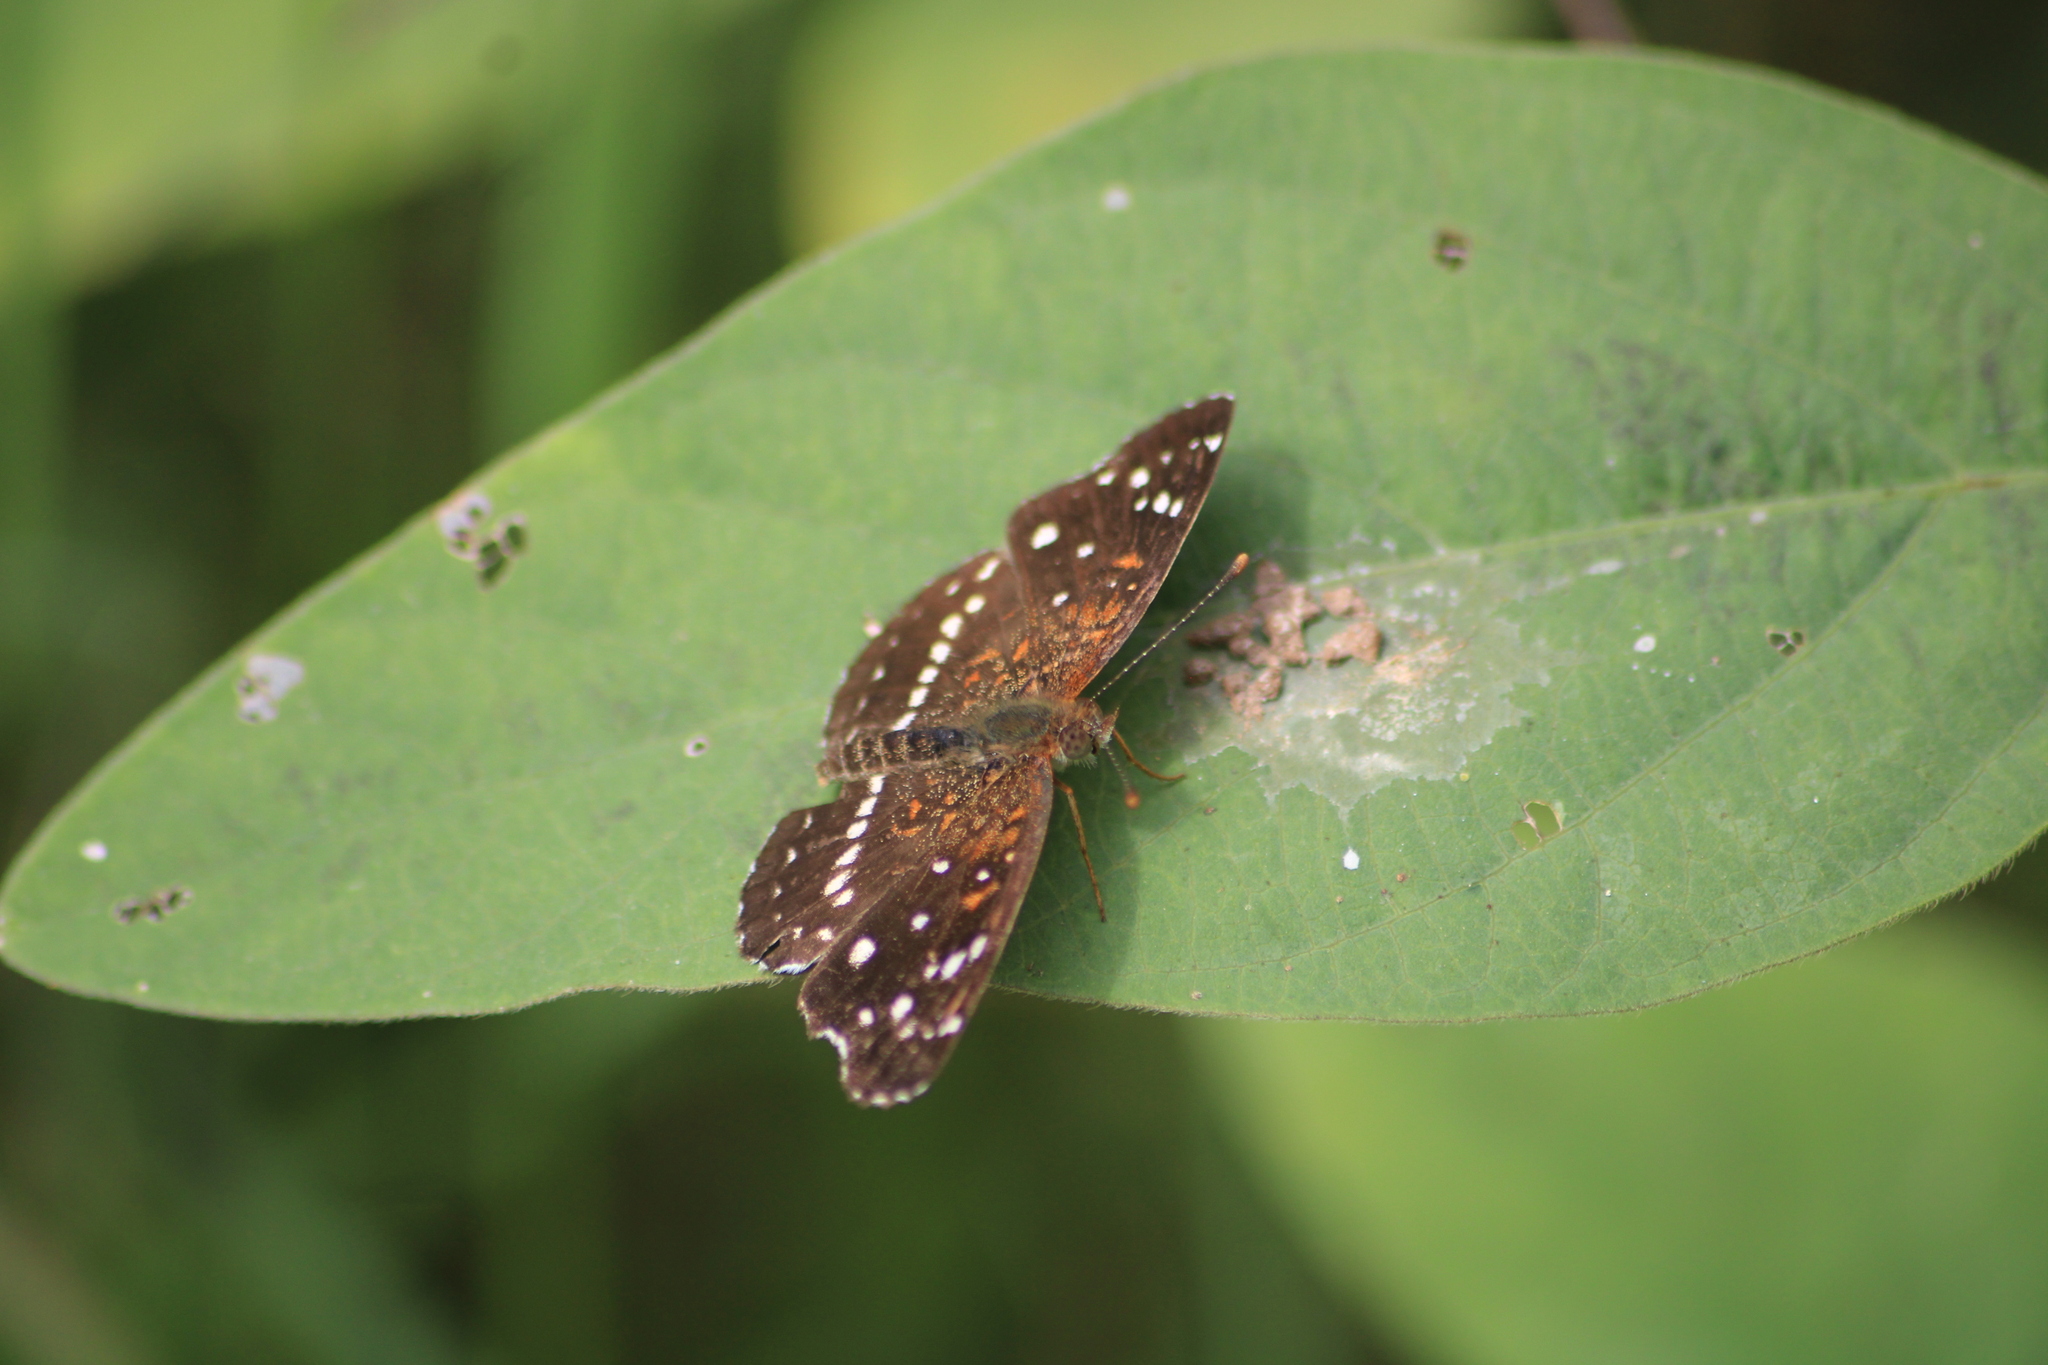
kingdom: Animalia
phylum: Arthropoda
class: Insecta
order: Lepidoptera
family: Nymphalidae
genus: Anthanassa
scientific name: Anthanassa texana
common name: Texan crescent
